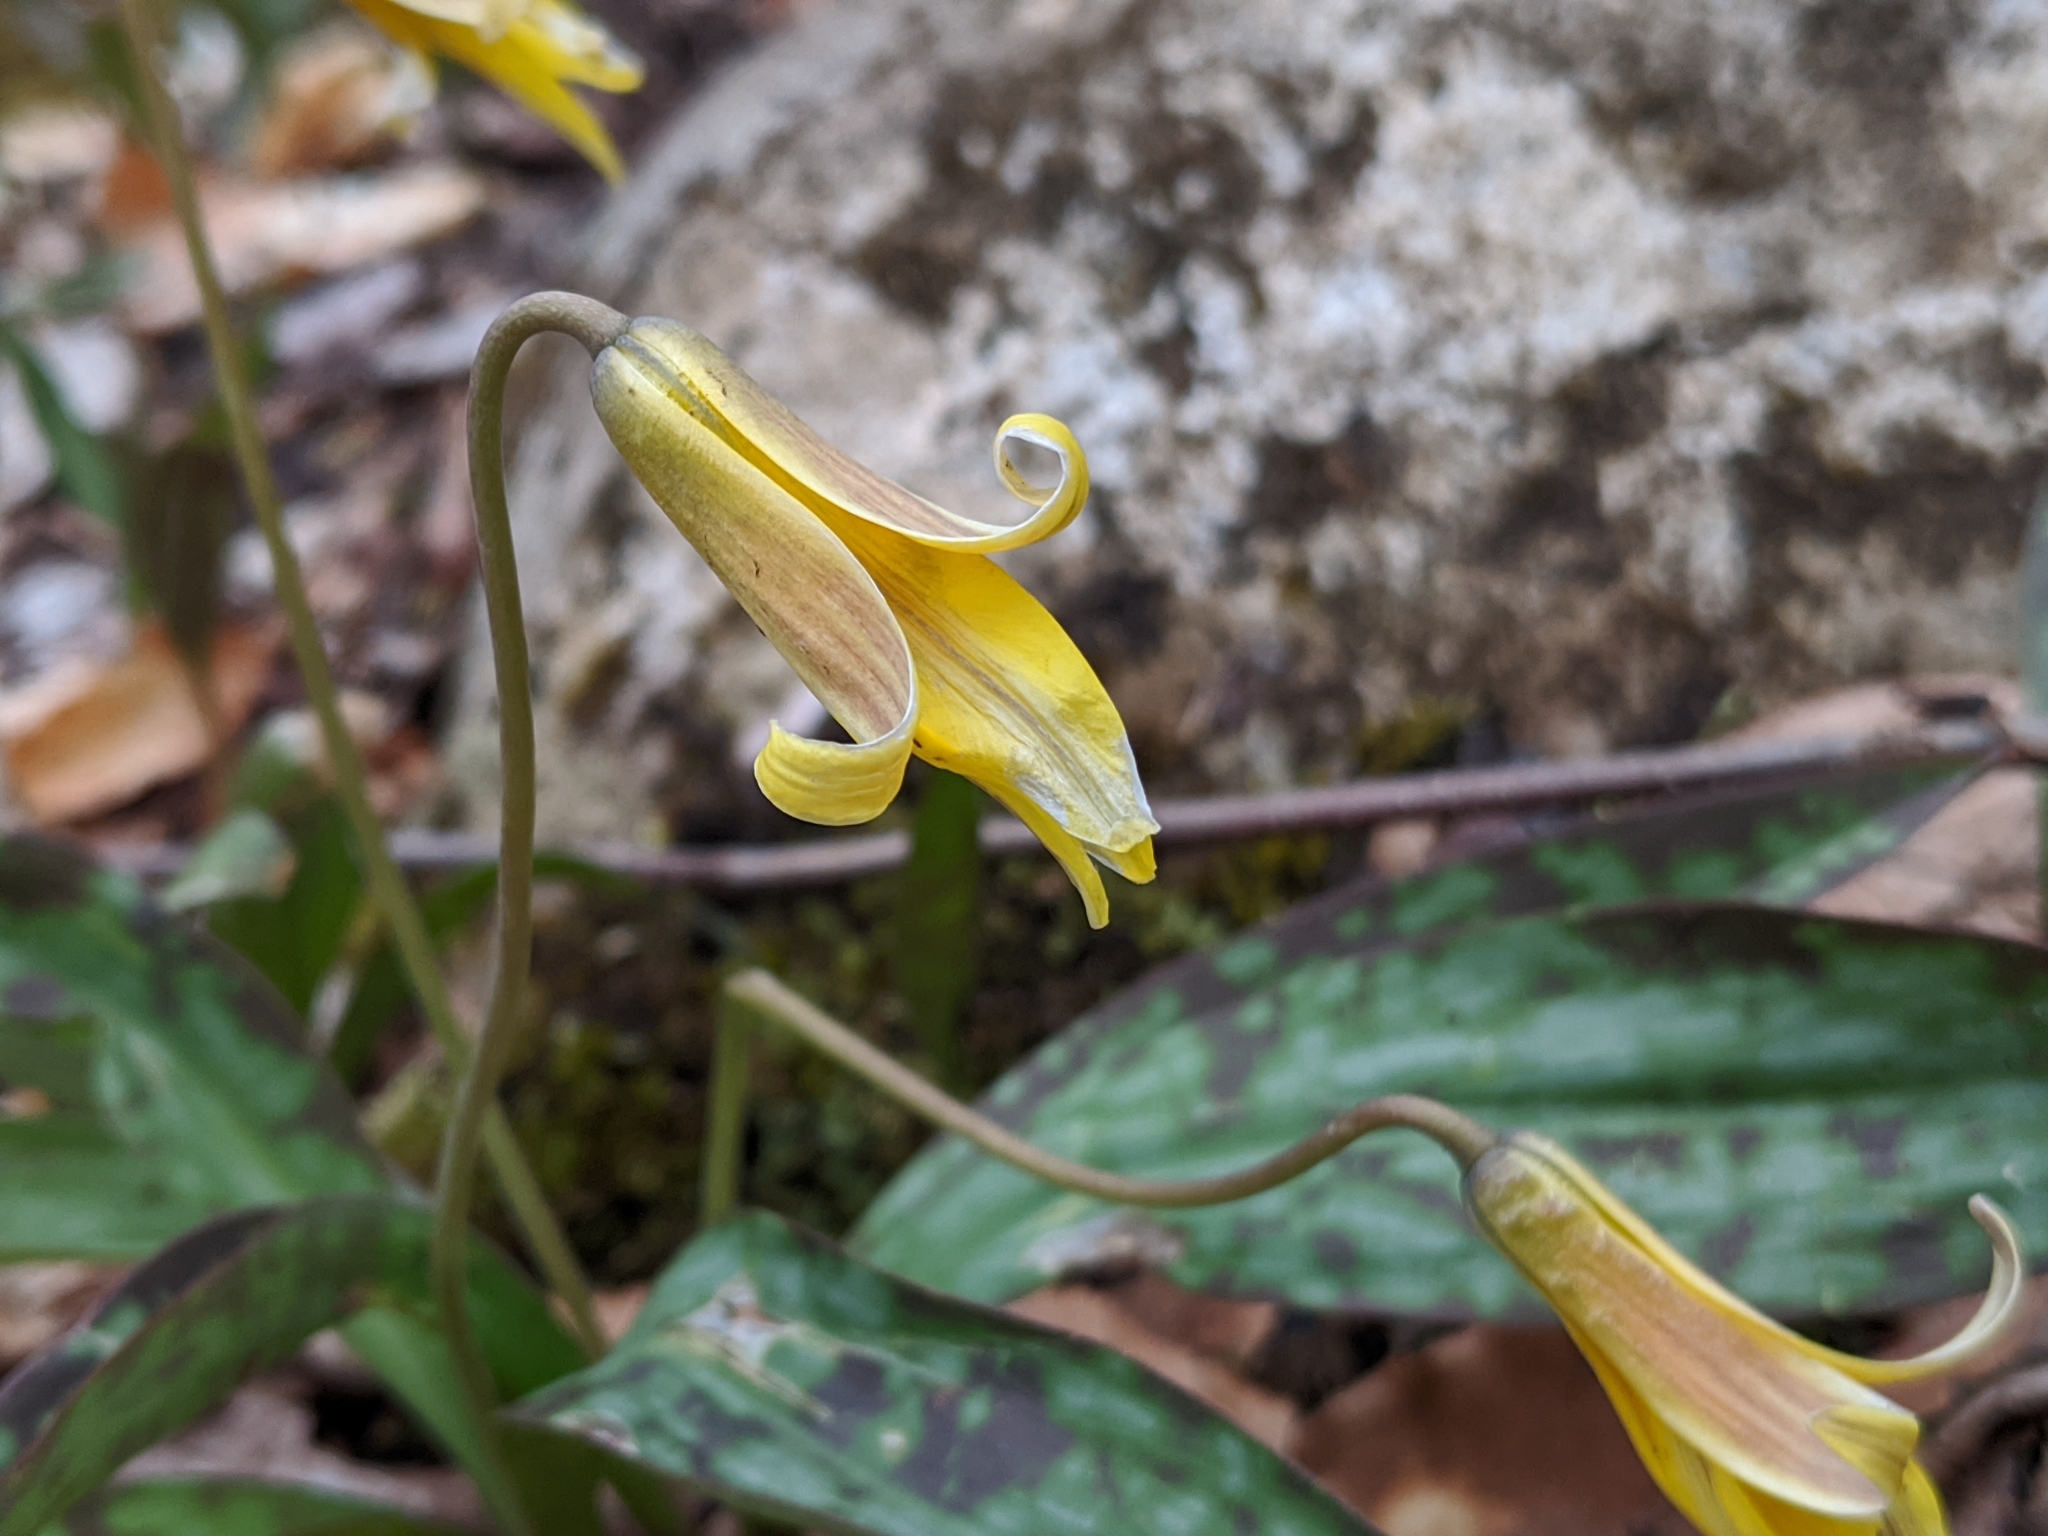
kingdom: Plantae
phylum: Tracheophyta
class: Liliopsida
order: Liliales
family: Liliaceae
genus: Erythronium
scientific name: Erythronium americanum
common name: Yellow adder's-tongue
